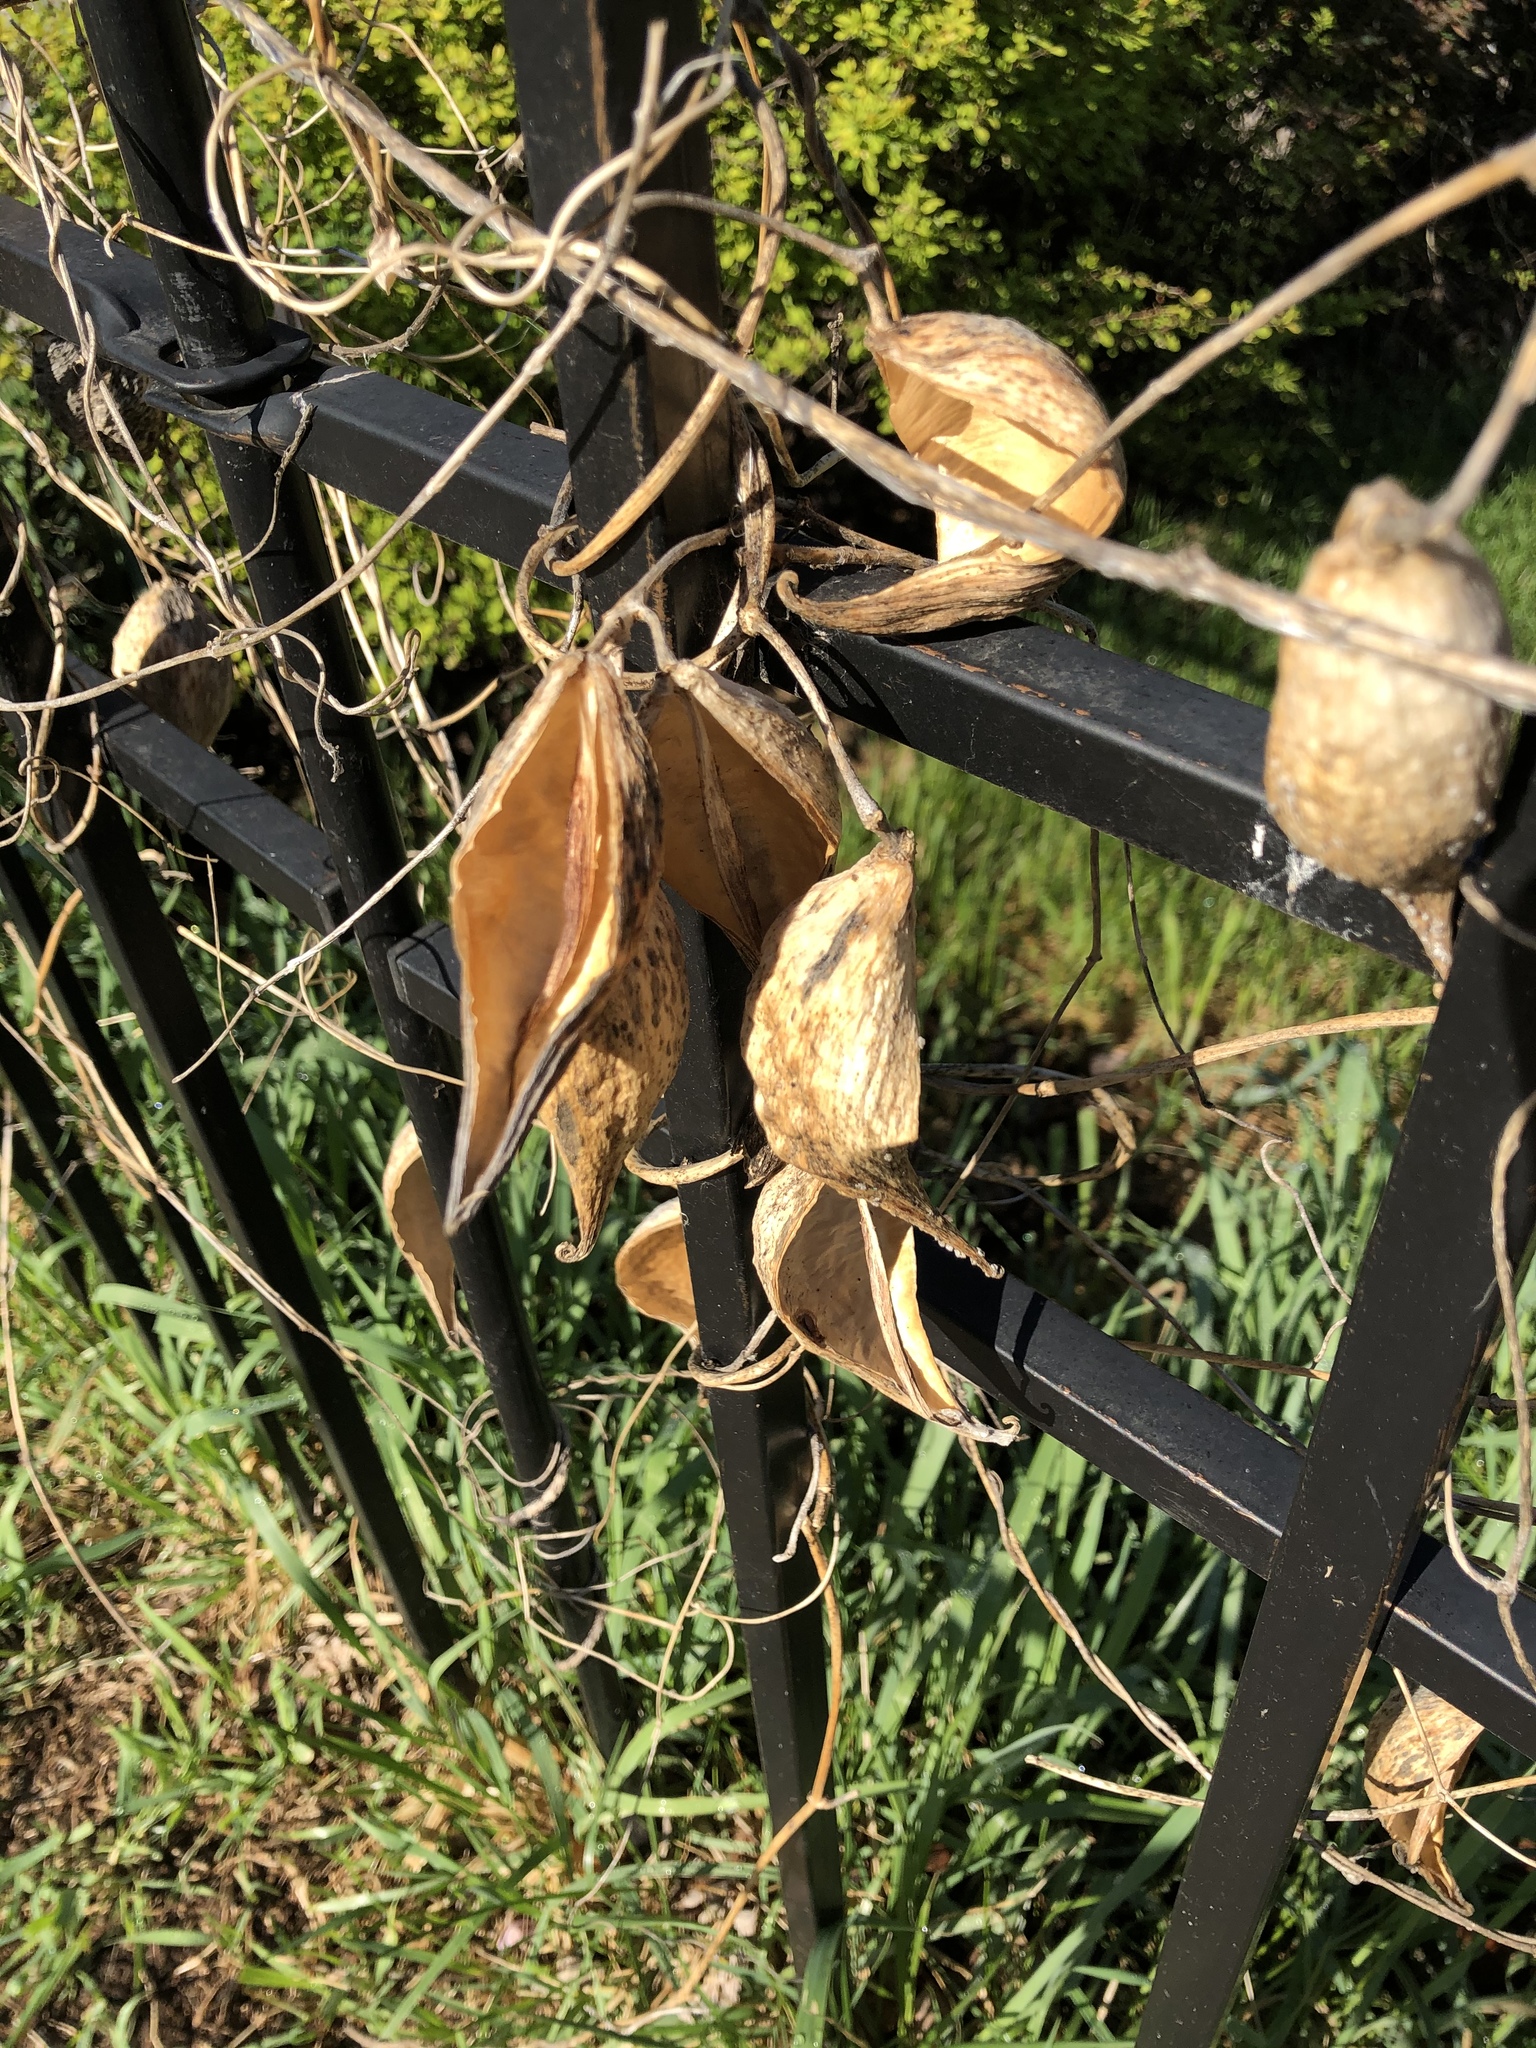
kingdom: Plantae
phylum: Tracheophyta
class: Magnoliopsida
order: Gentianales
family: Apocynaceae
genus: Cynanchum
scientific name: Cynanchum laeve
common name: Sandvine
